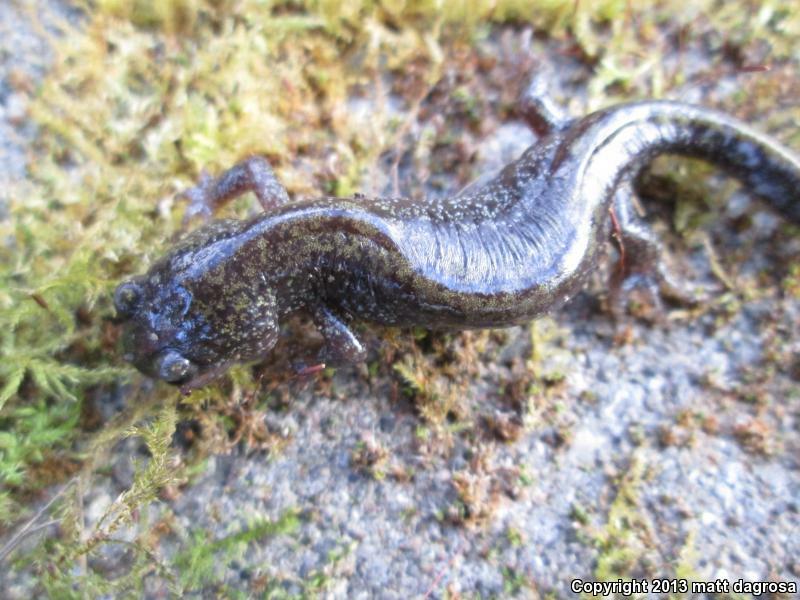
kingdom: Animalia
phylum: Chordata
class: Amphibia
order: Caudata
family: Ambystomatidae
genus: Ambystoma
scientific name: Ambystoma macrodactylum
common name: Long-toed salamander
